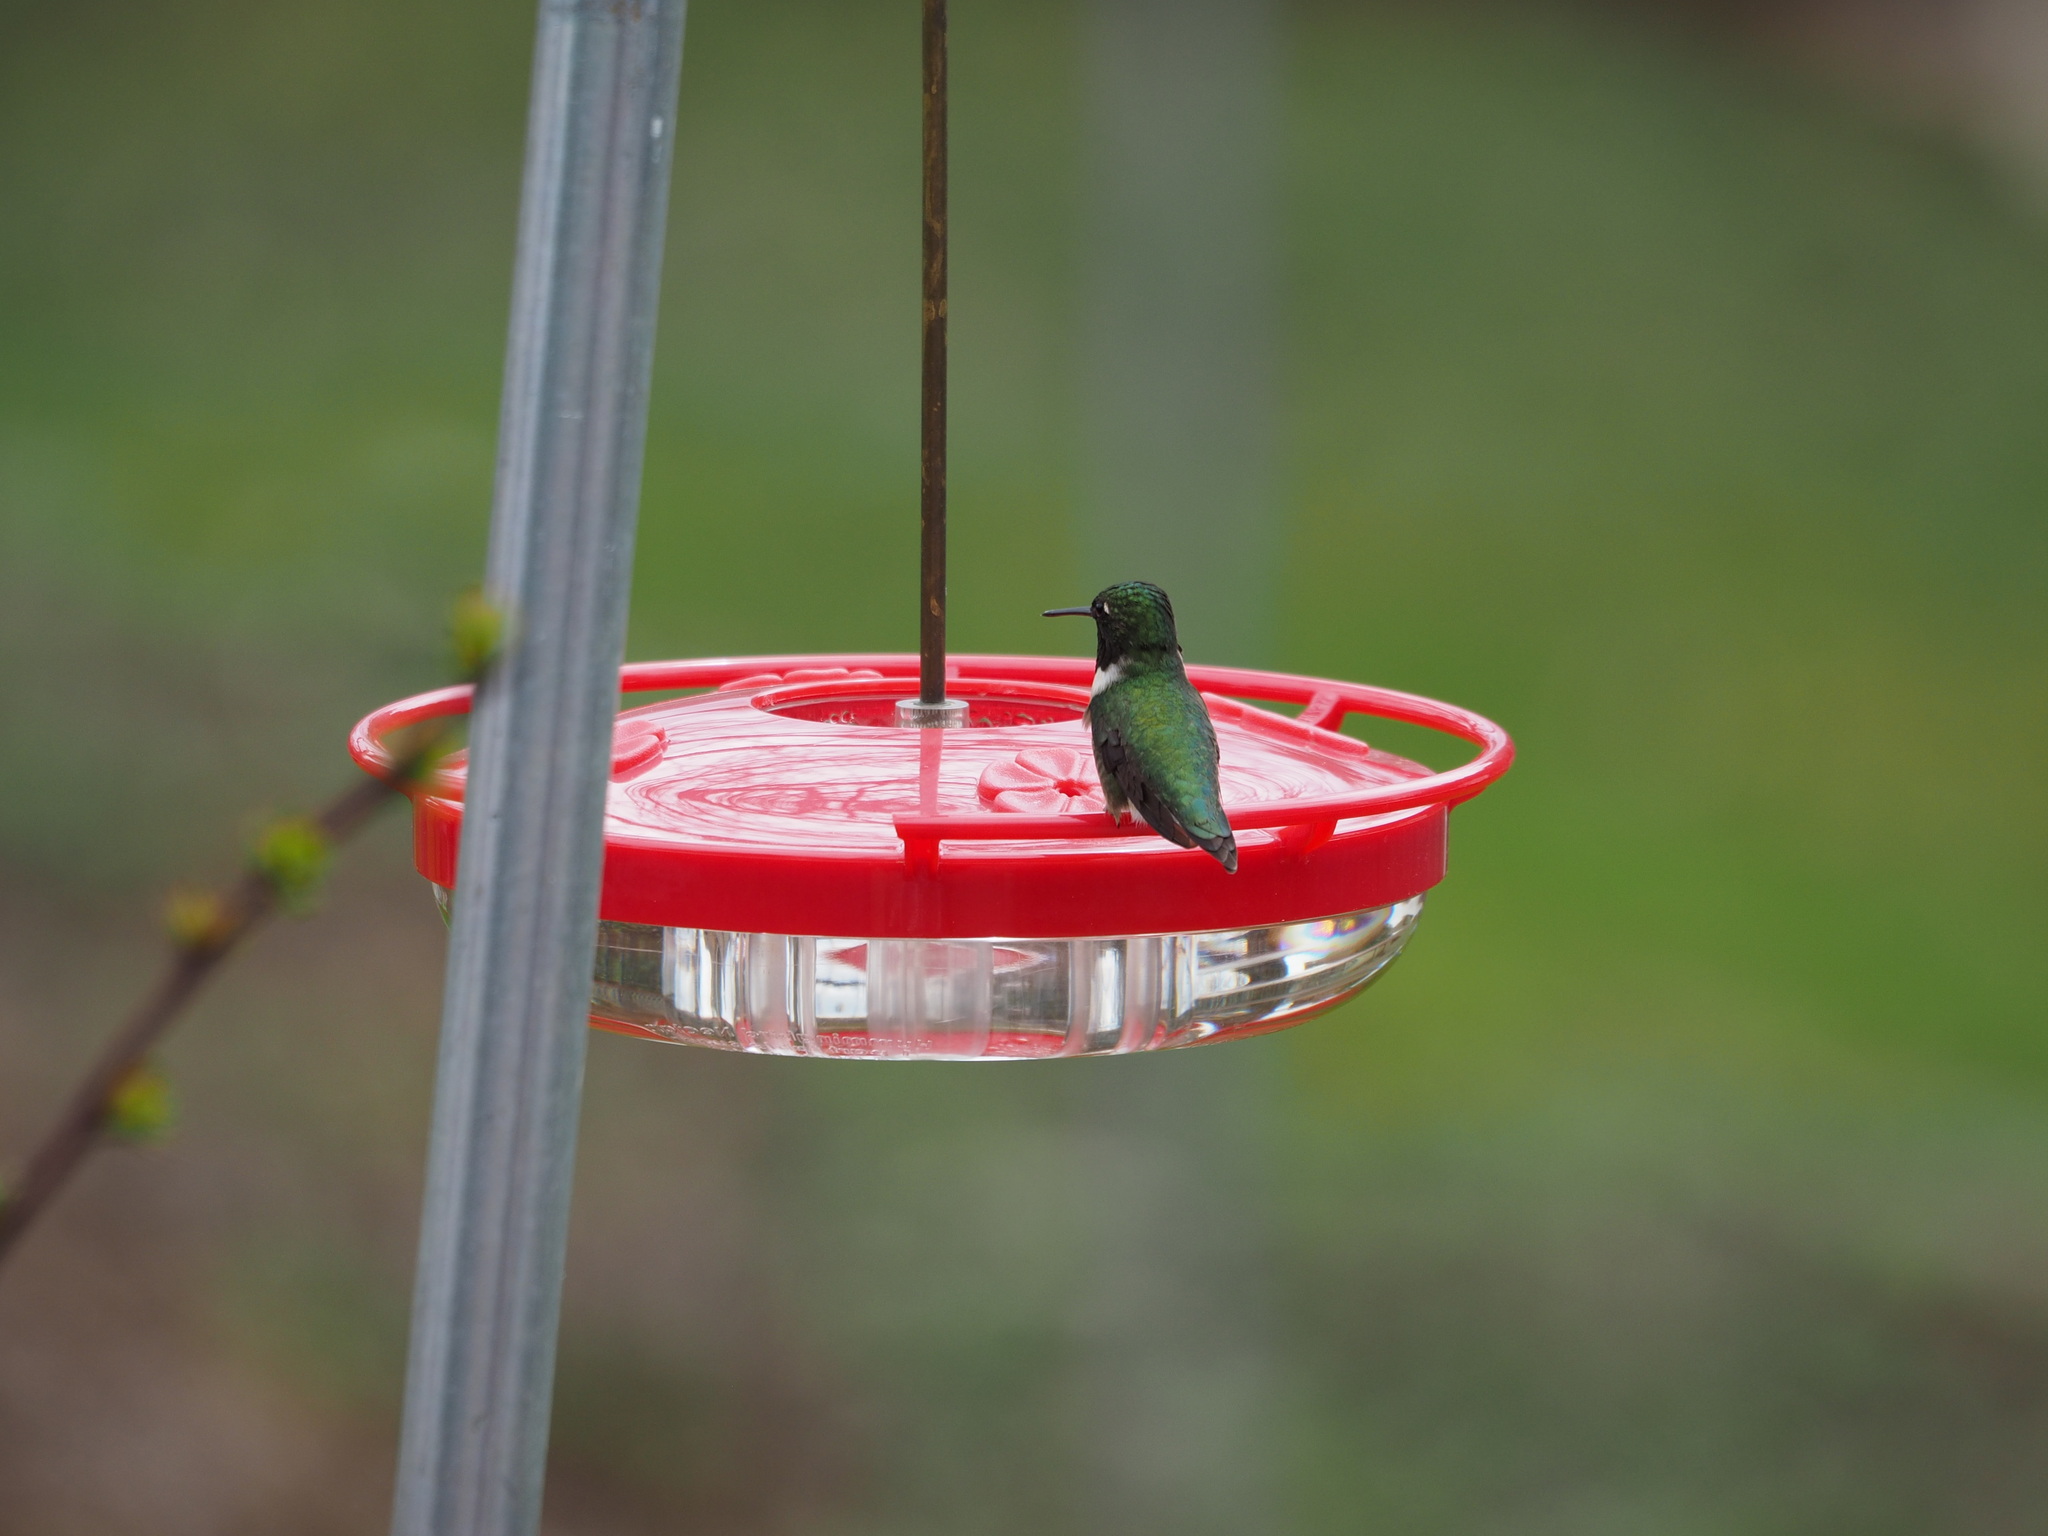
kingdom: Animalia
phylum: Chordata
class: Aves
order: Apodiformes
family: Trochilidae
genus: Archilochus
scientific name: Archilochus colubris
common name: Ruby-throated hummingbird
